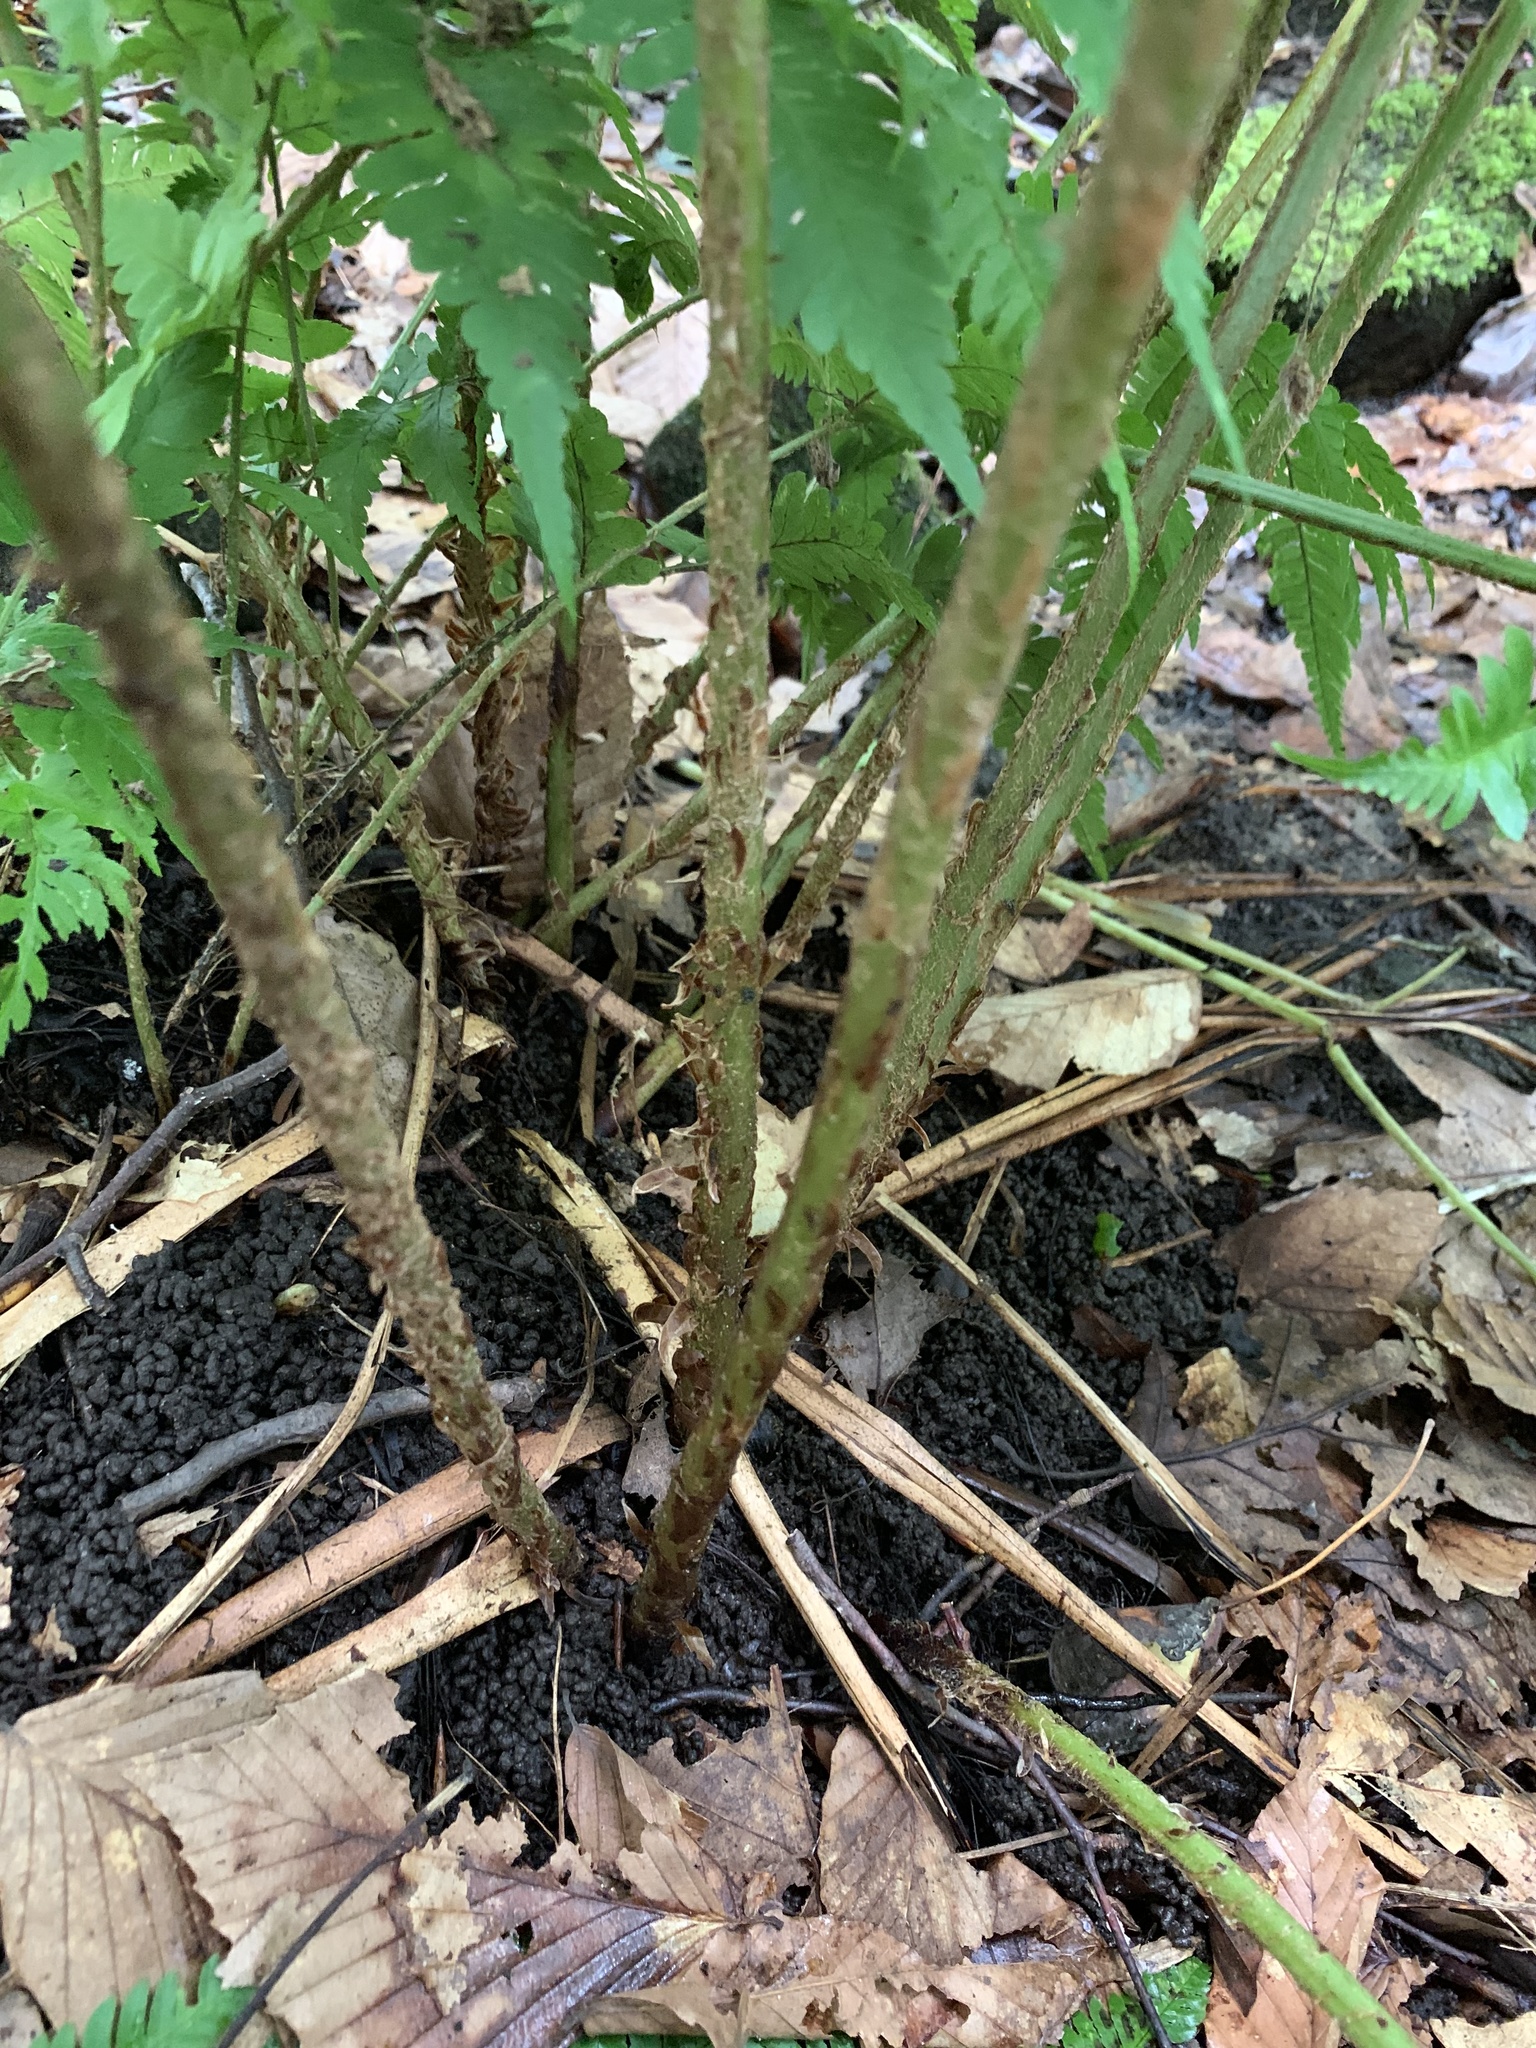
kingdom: Plantae
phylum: Tracheophyta
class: Polypodiopsida
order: Polypodiales
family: Dryopteridaceae
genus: Dryopteris
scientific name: Dryopteris goldieana
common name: Goldie's fern
